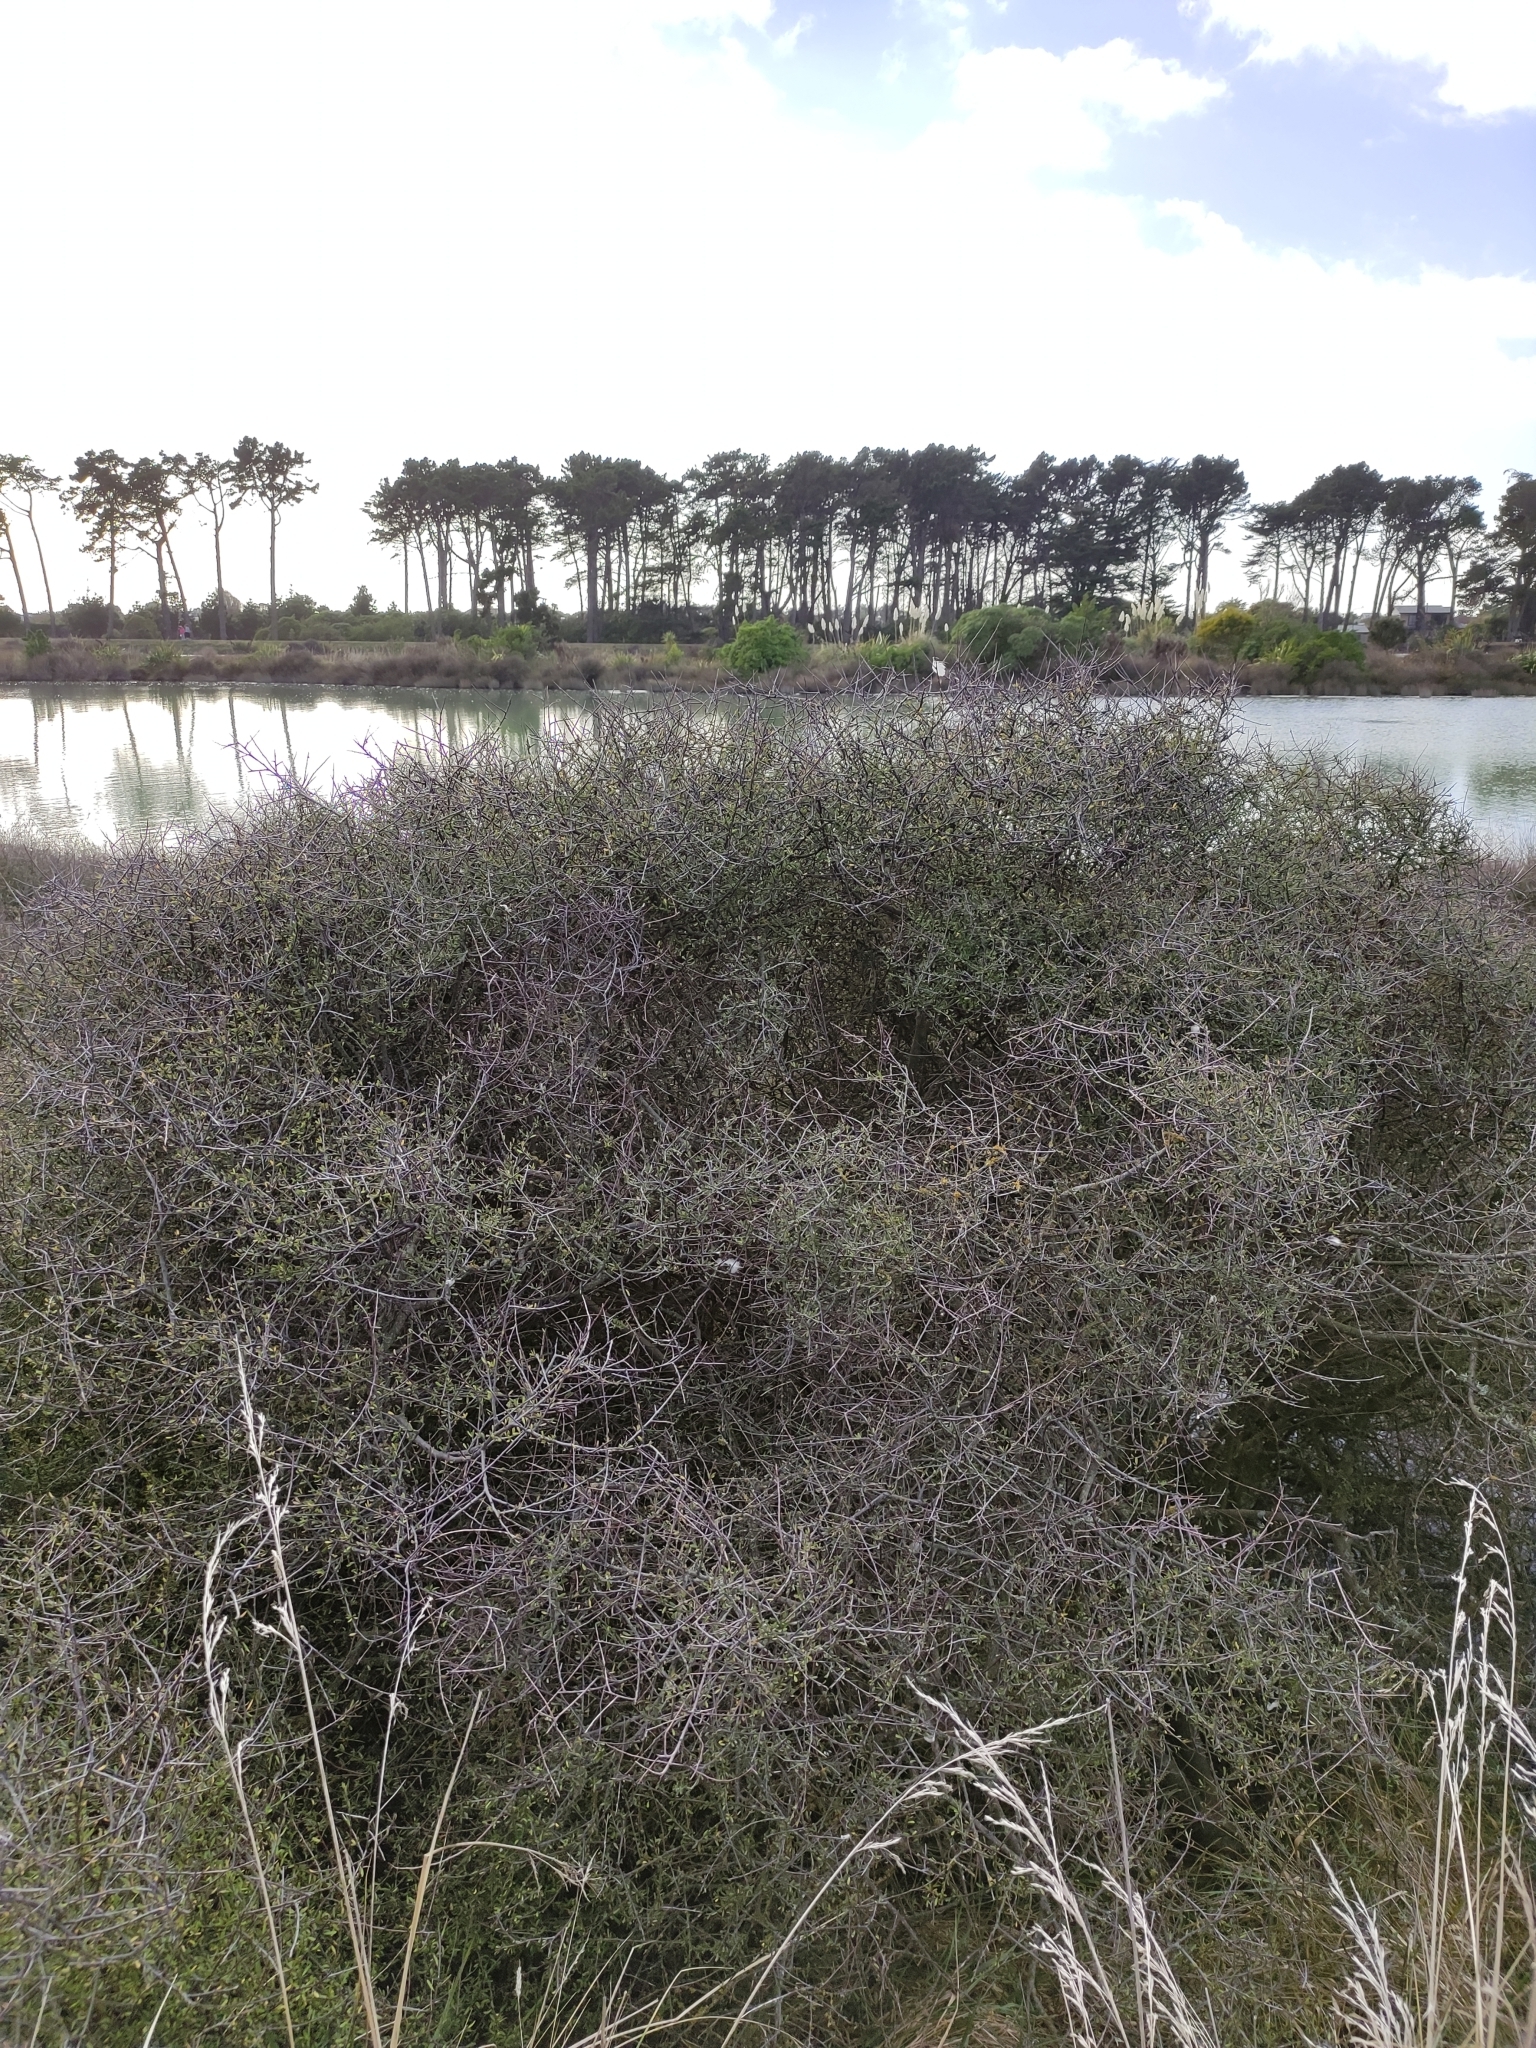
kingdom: Plantae
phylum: Tracheophyta
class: Magnoliopsida
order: Malvales
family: Malvaceae
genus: Plagianthus
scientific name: Plagianthus divaricatus
